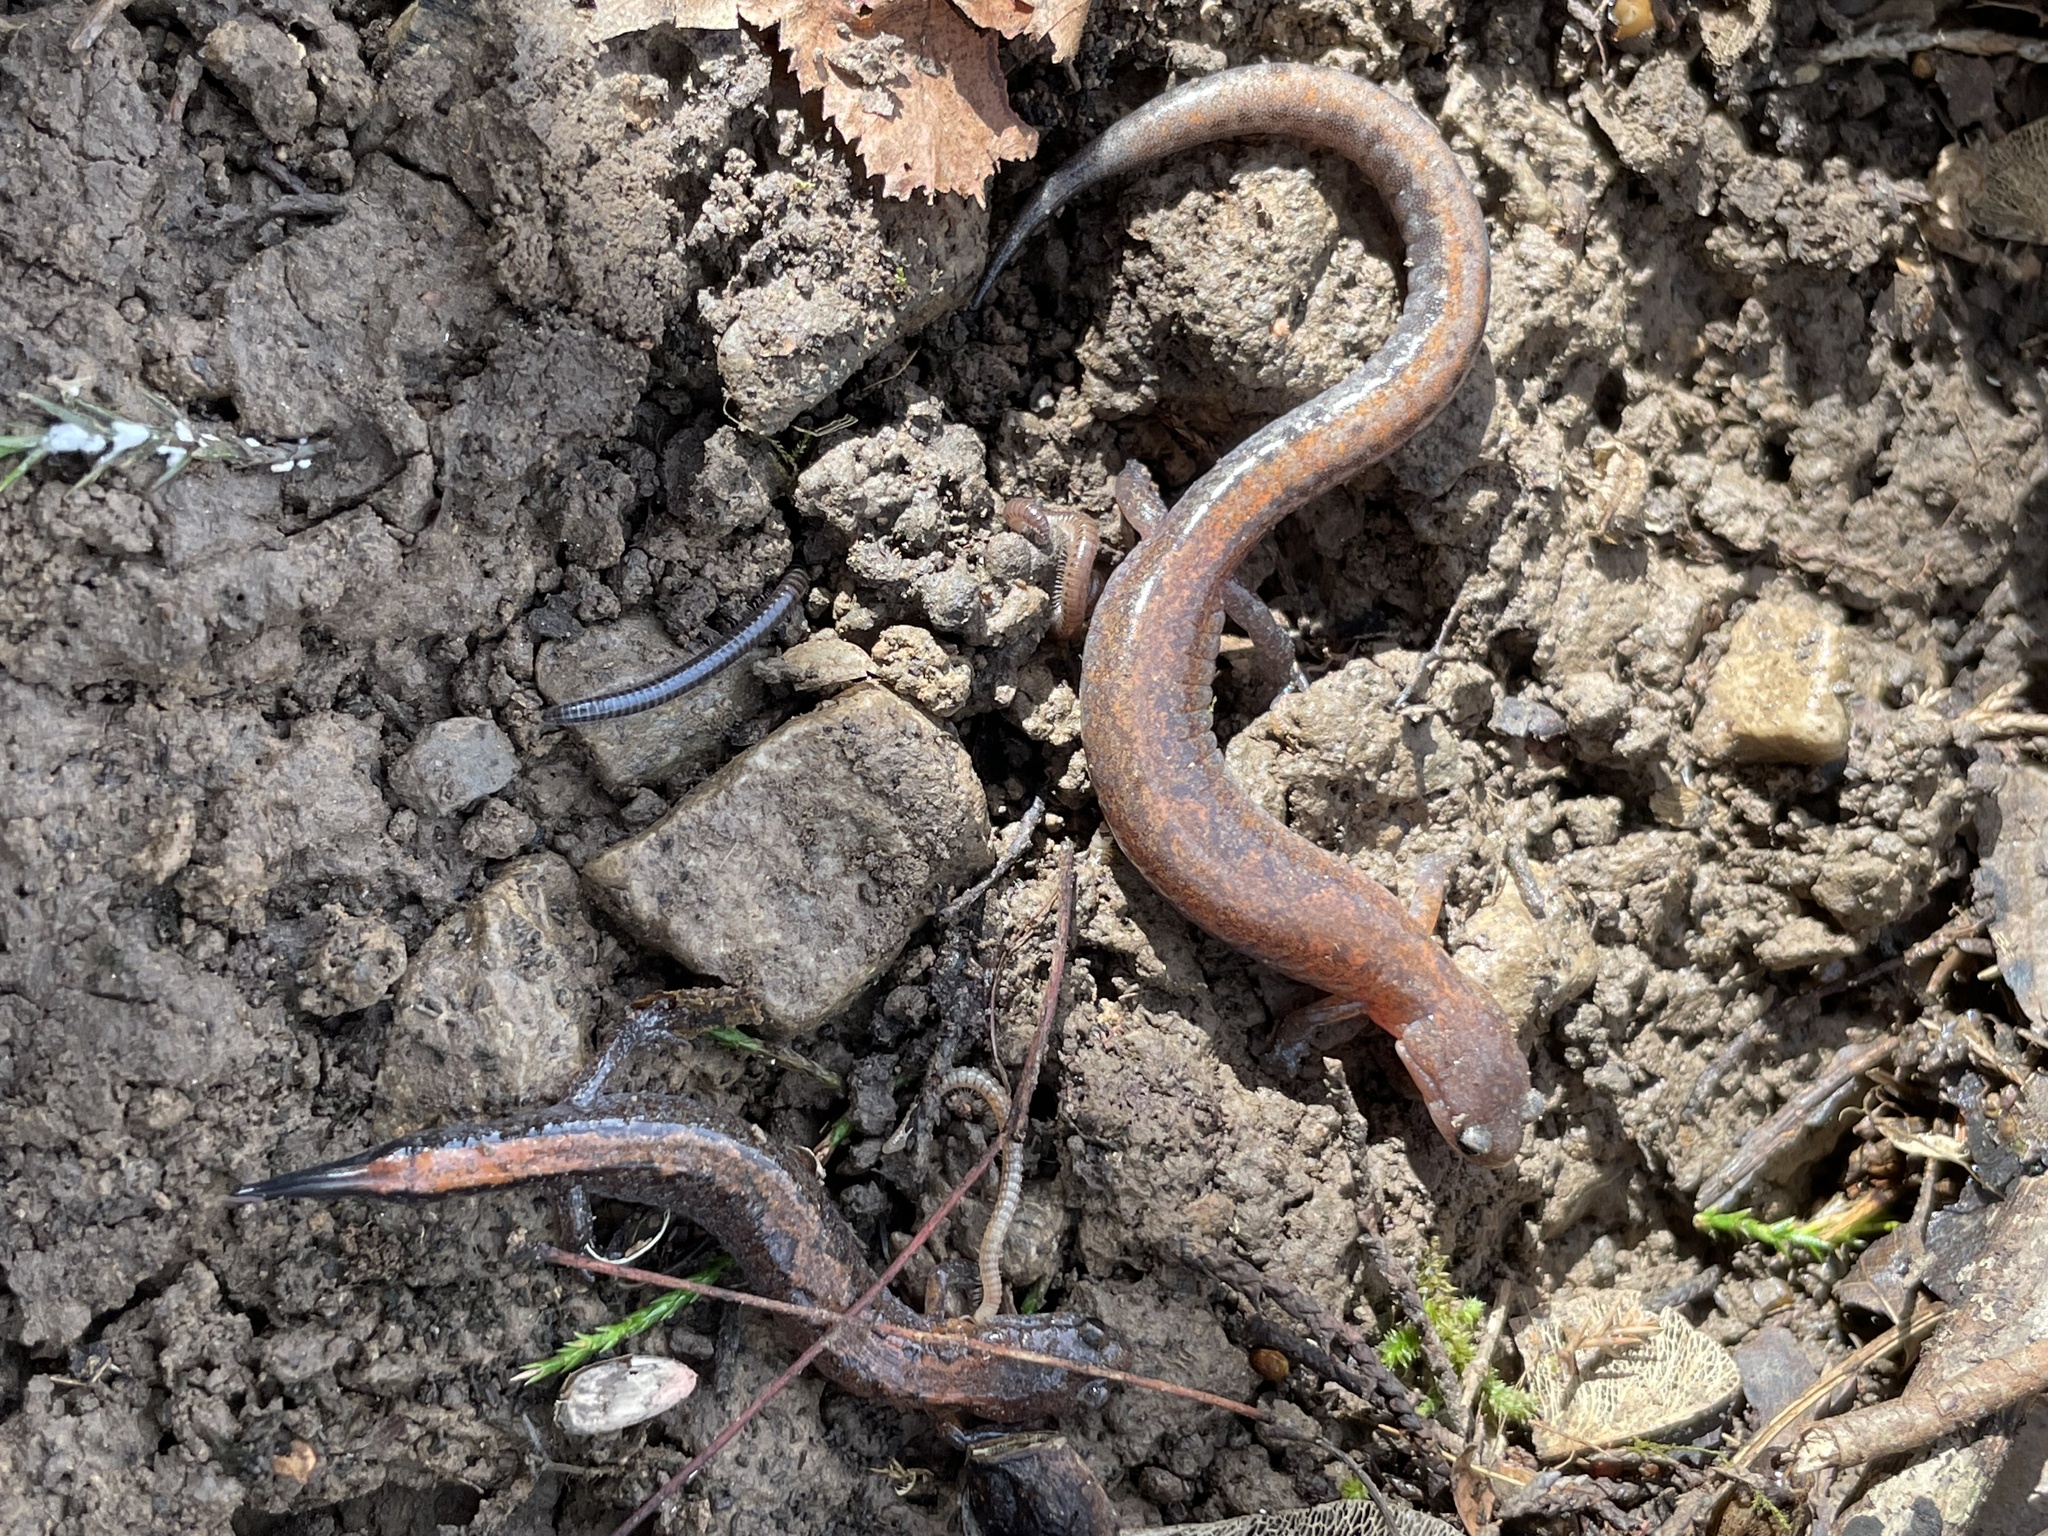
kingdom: Animalia
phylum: Chordata
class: Amphibia
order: Caudata
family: Plethodontidae
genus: Plethodon
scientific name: Plethodon dorsalis
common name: Northern zigzag salamander
